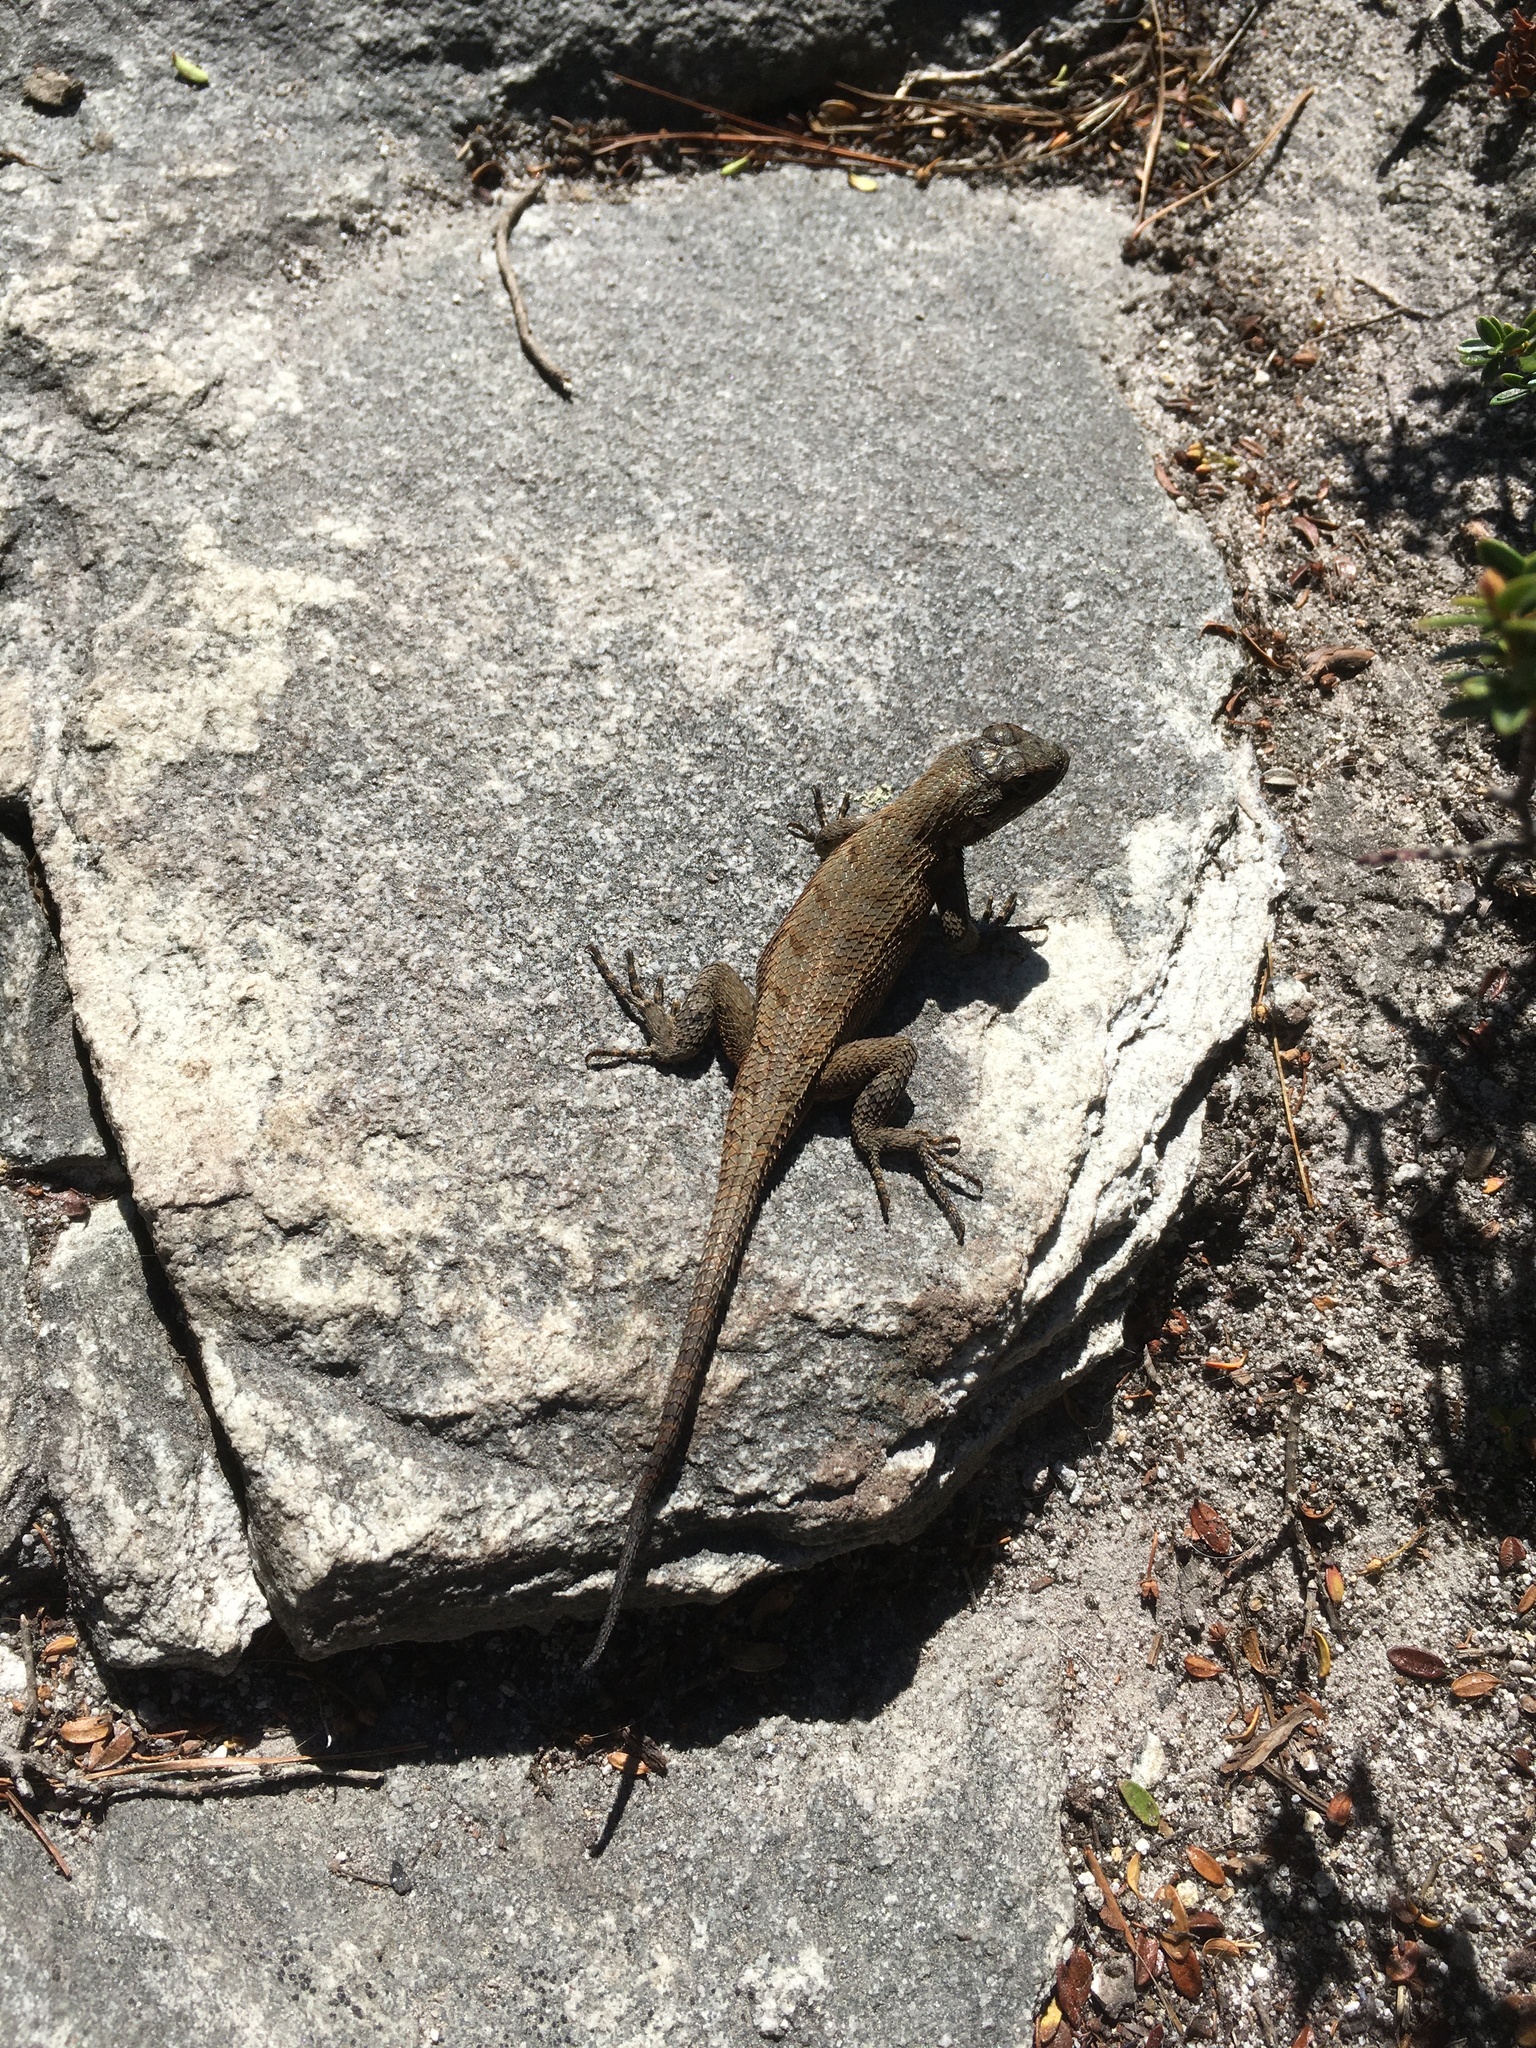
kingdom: Animalia
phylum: Chordata
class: Squamata
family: Phrynosomatidae
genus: Sceloporus
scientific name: Sceloporus undulatus
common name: Eastern fence lizard
